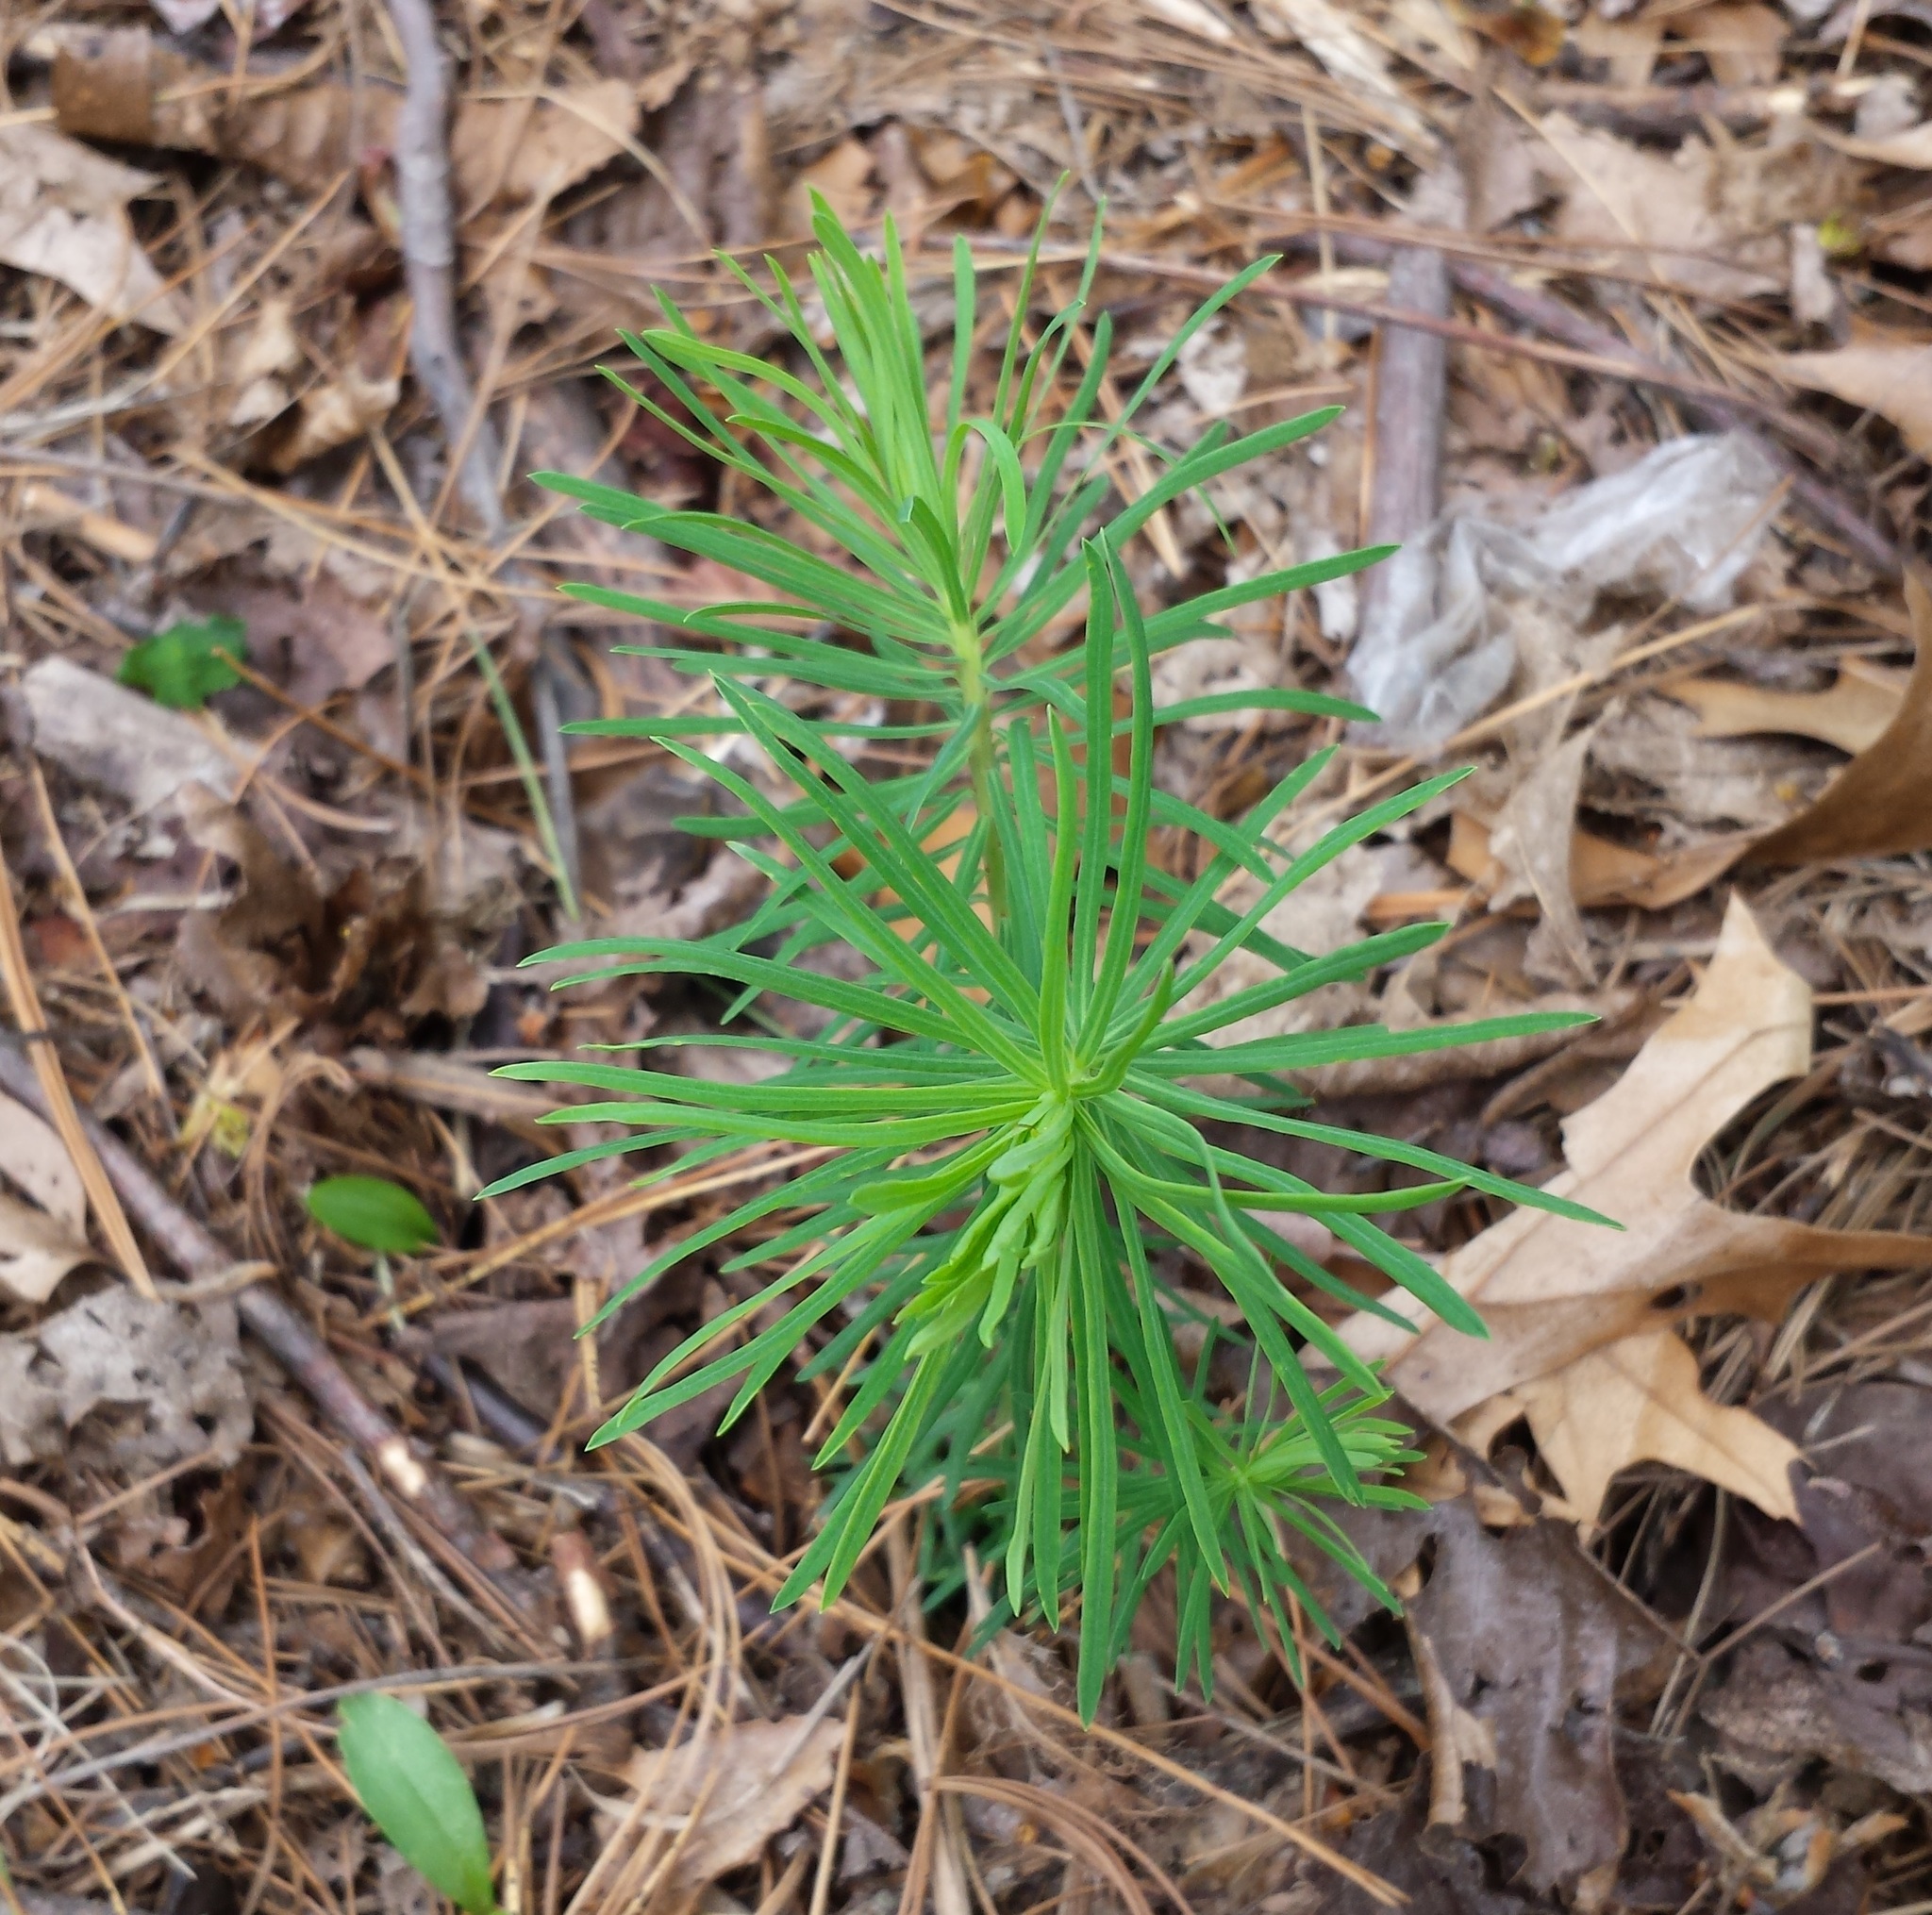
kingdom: Plantae
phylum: Tracheophyta
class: Magnoliopsida
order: Malpighiales
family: Euphorbiaceae
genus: Euphorbia
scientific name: Euphorbia cyparissias
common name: Cypress spurge
